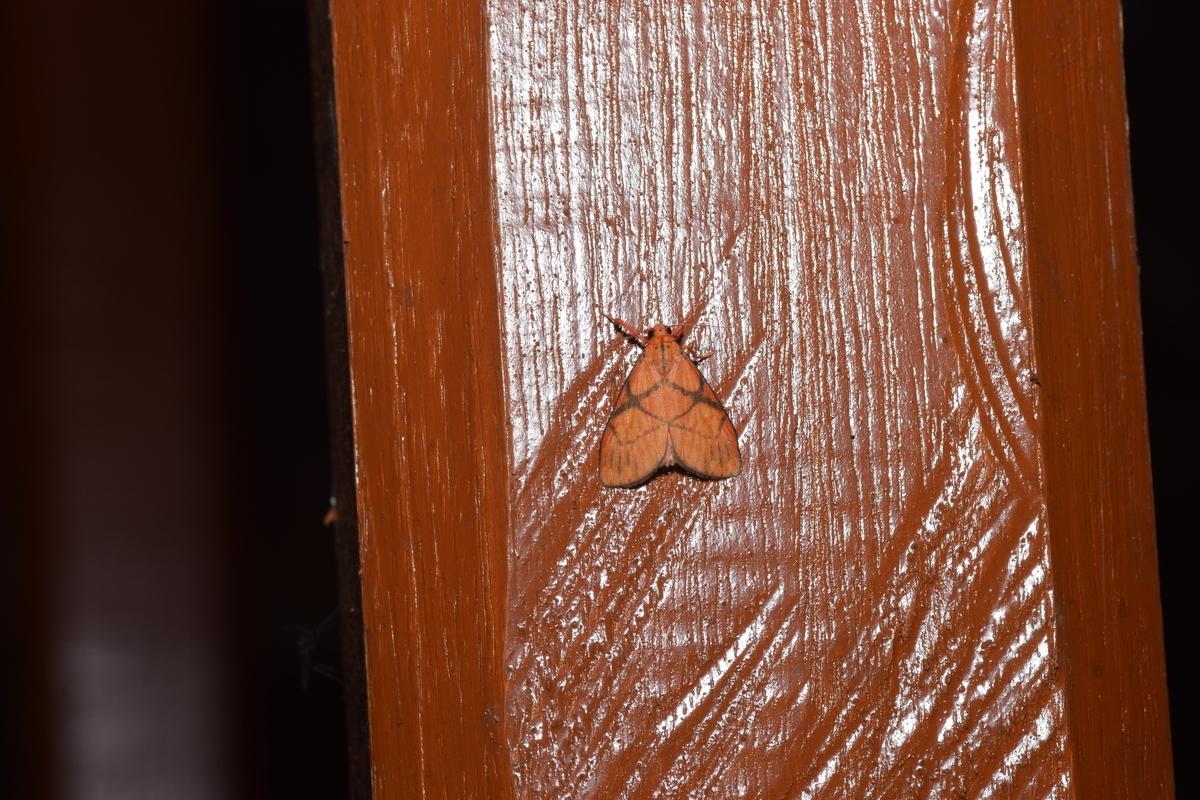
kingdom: Animalia
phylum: Arthropoda
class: Insecta
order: Lepidoptera
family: Erebidae
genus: Moorasura
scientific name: Moorasura gloriosa
